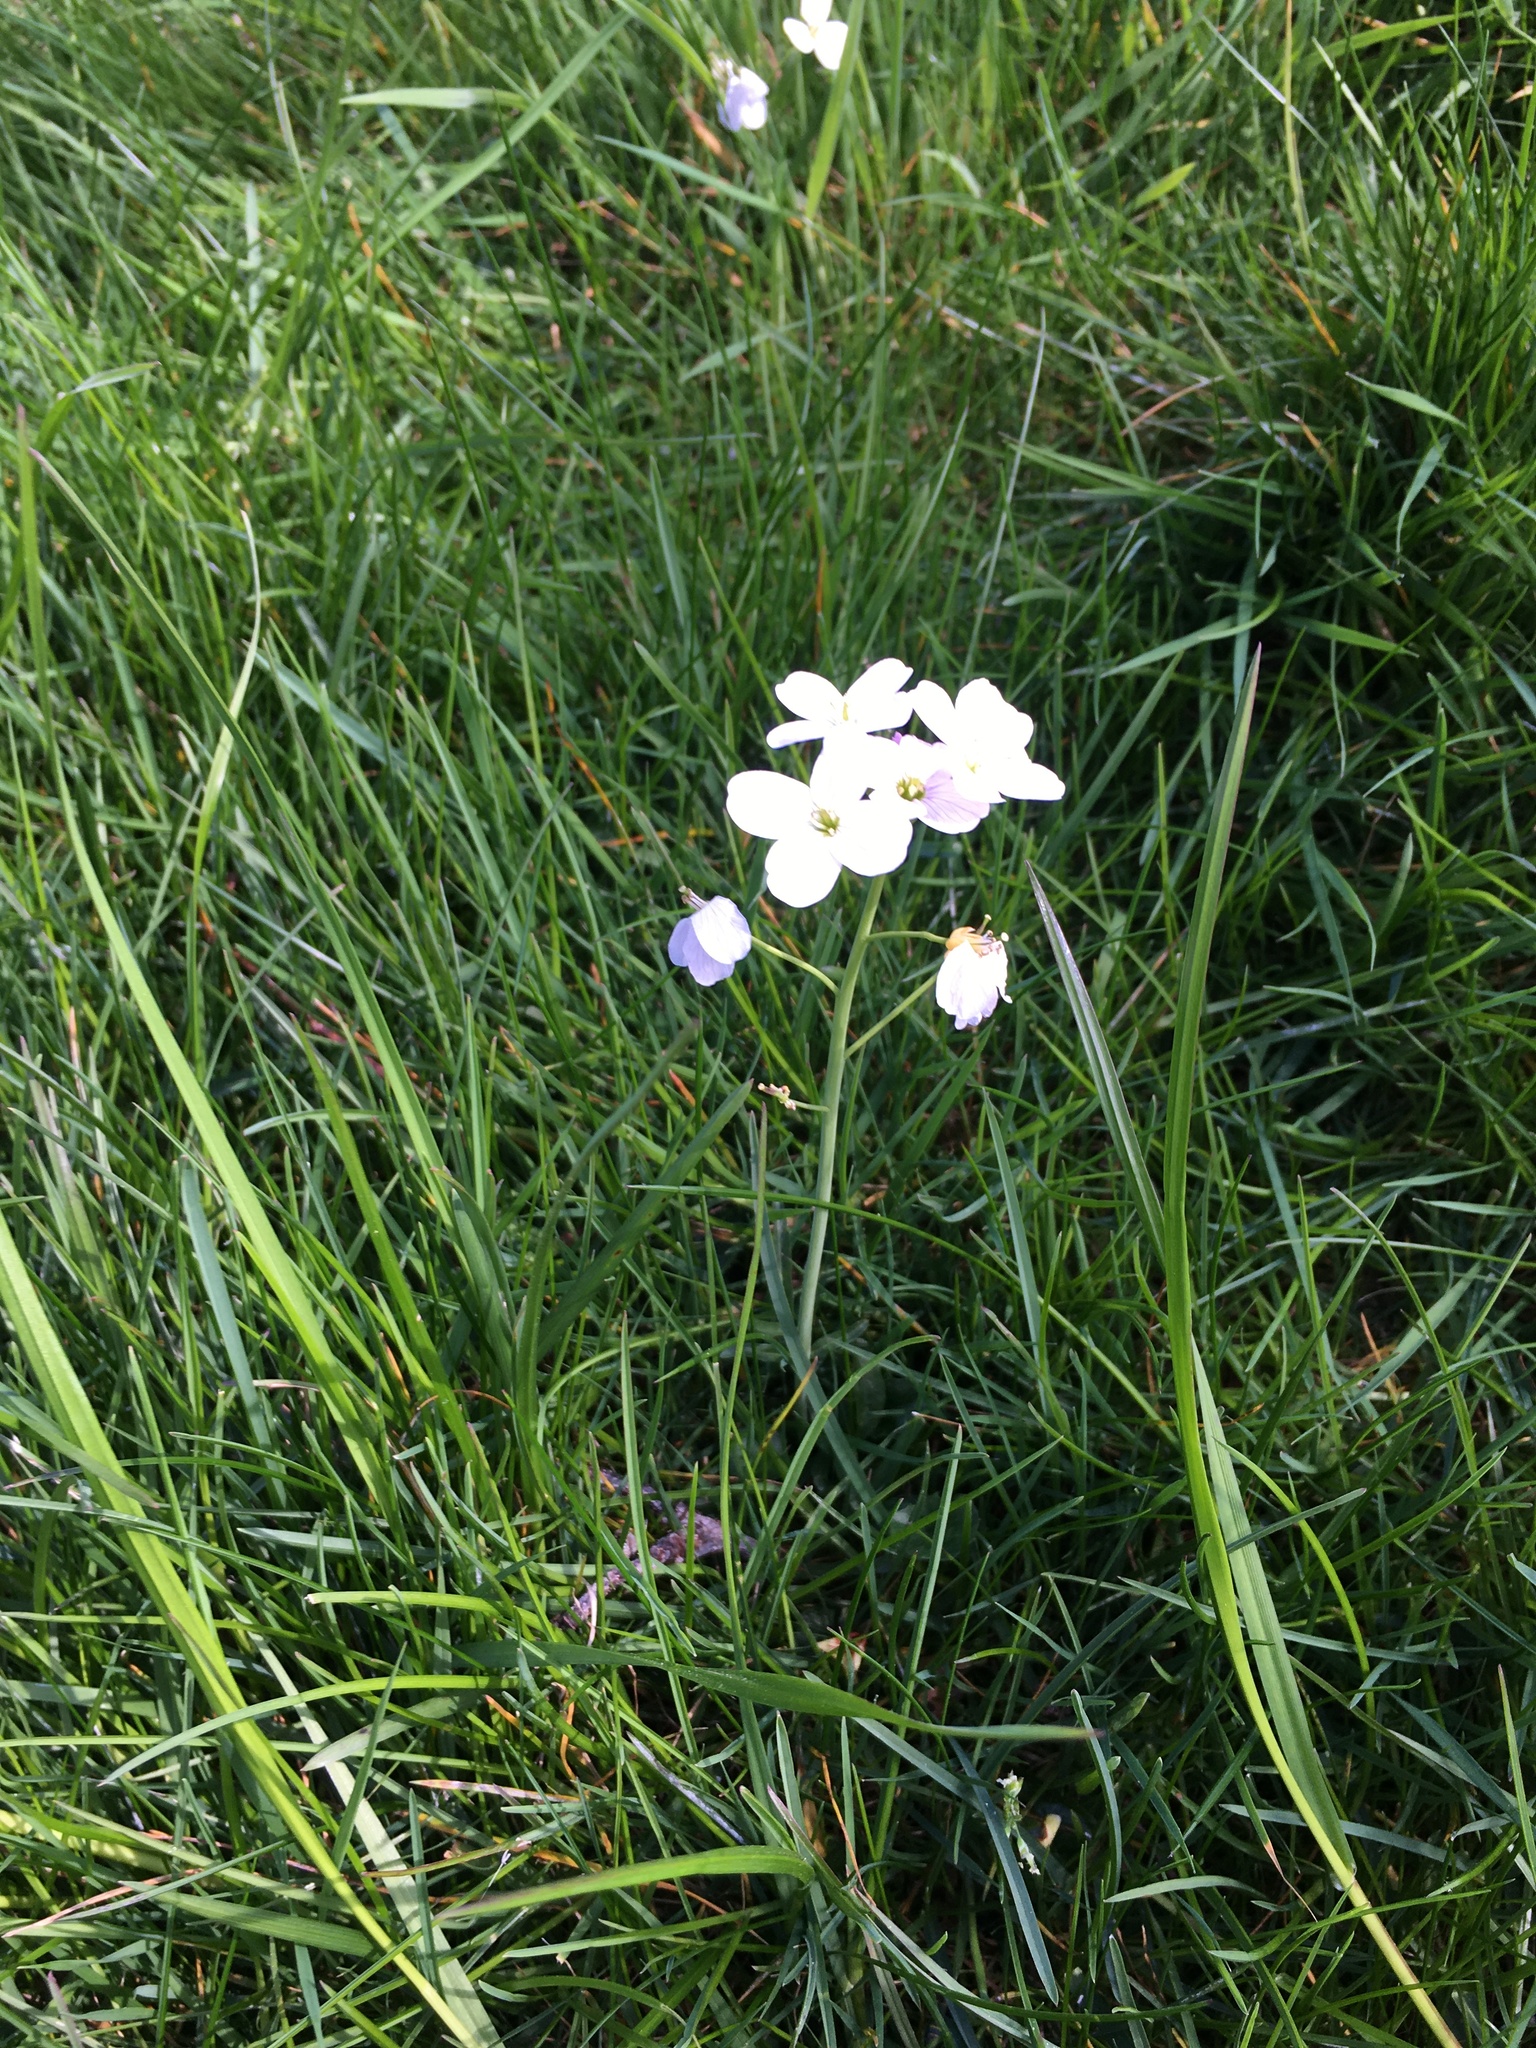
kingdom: Plantae
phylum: Tracheophyta
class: Magnoliopsida
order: Brassicales
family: Brassicaceae
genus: Cardamine
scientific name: Cardamine pratensis
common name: Cuckoo flower
